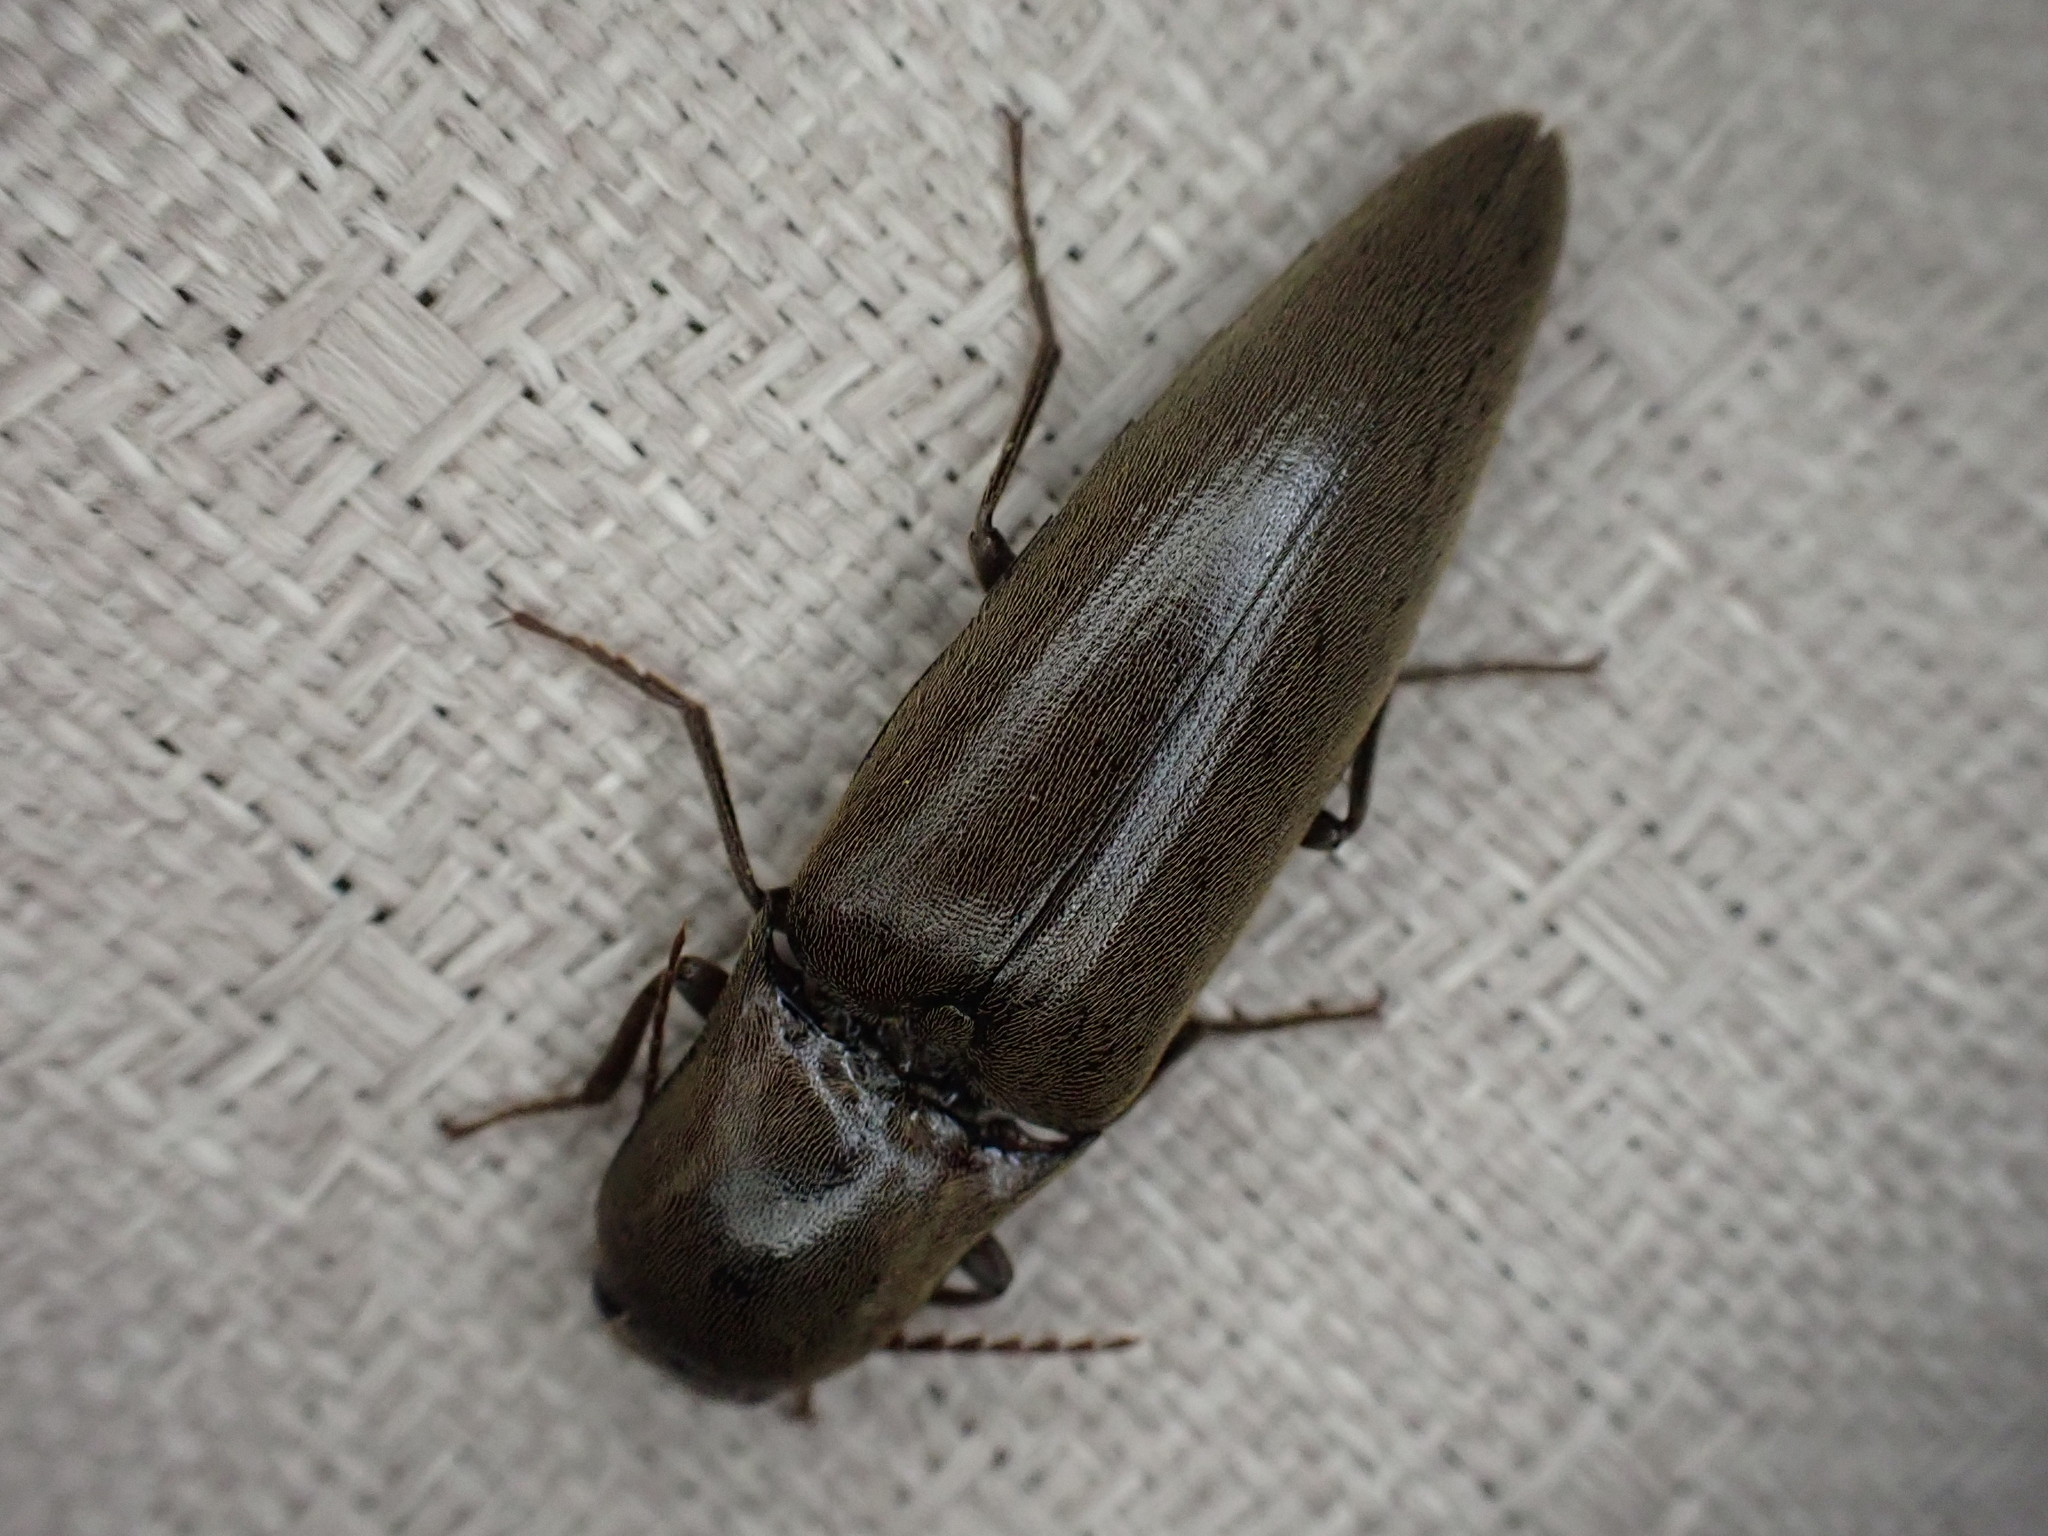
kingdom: Animalia
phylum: Arthropoda
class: Insecta
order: Coleoptera
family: Elateridae
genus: Orthostethus
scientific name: Orthostethus infuscatus
